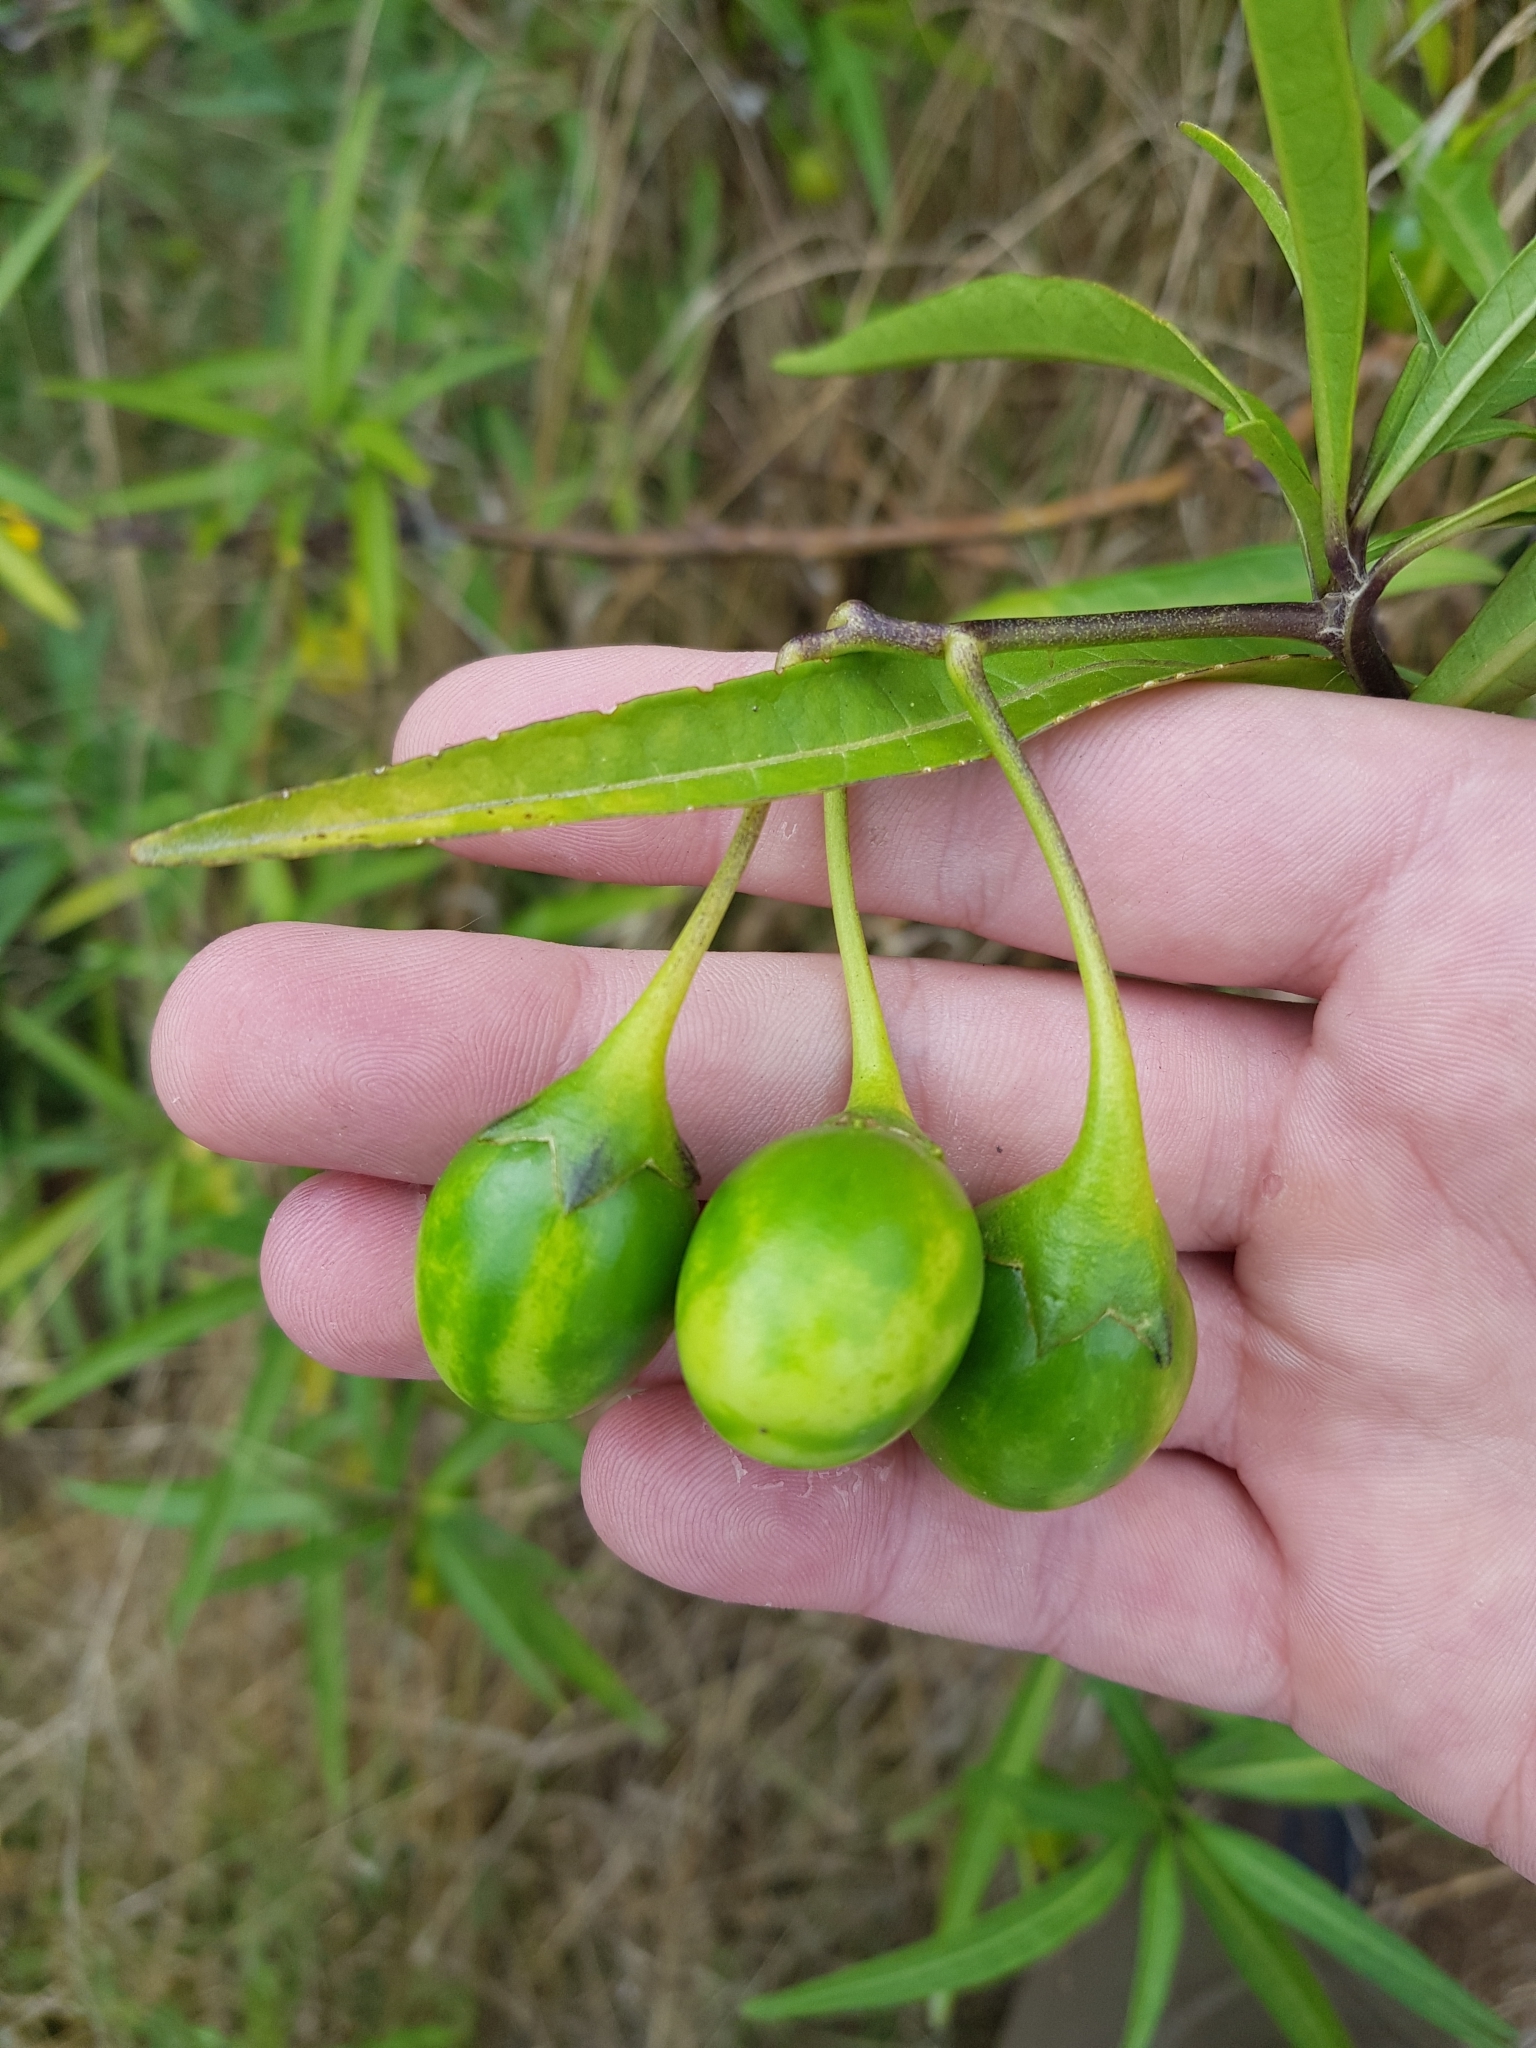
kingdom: Plantae
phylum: Tracheophyta
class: Magnoliopsida
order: Solanales
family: Solanaceae
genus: Solanum
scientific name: Solanum laciniatum
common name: Kangaroo-apple
